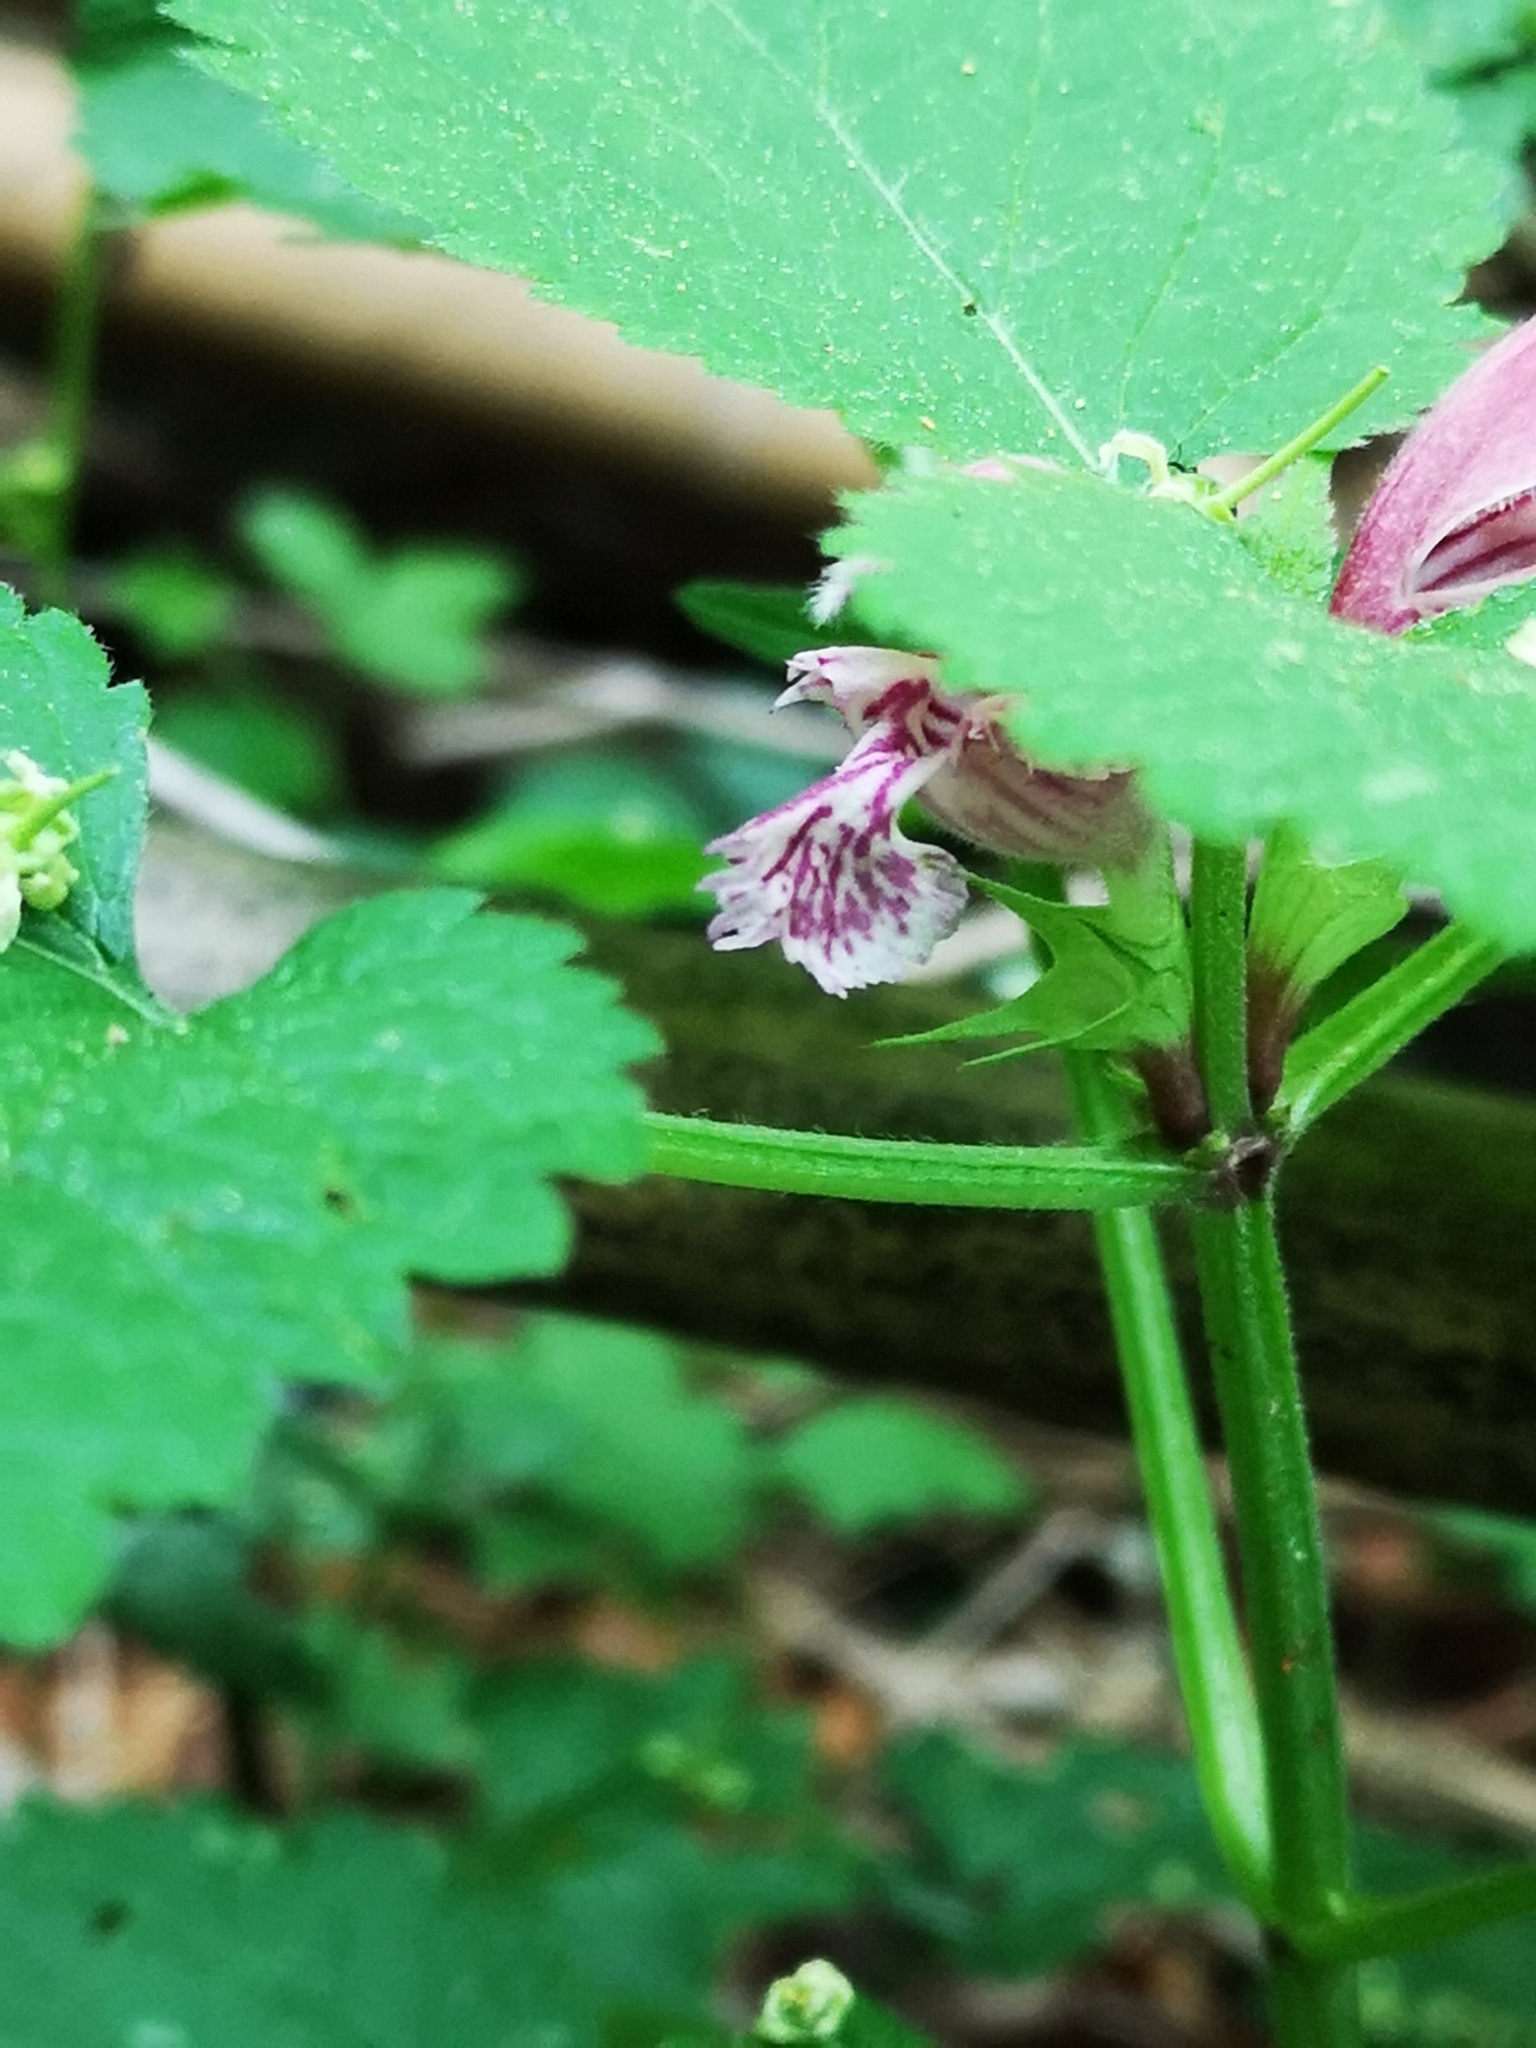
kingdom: Plantae
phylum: Tracheophyta
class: Magnoliopsida
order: Lamiales
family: Lamiaceae
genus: Lamium
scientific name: Lamium orvala
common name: Balm-leaved archangel
